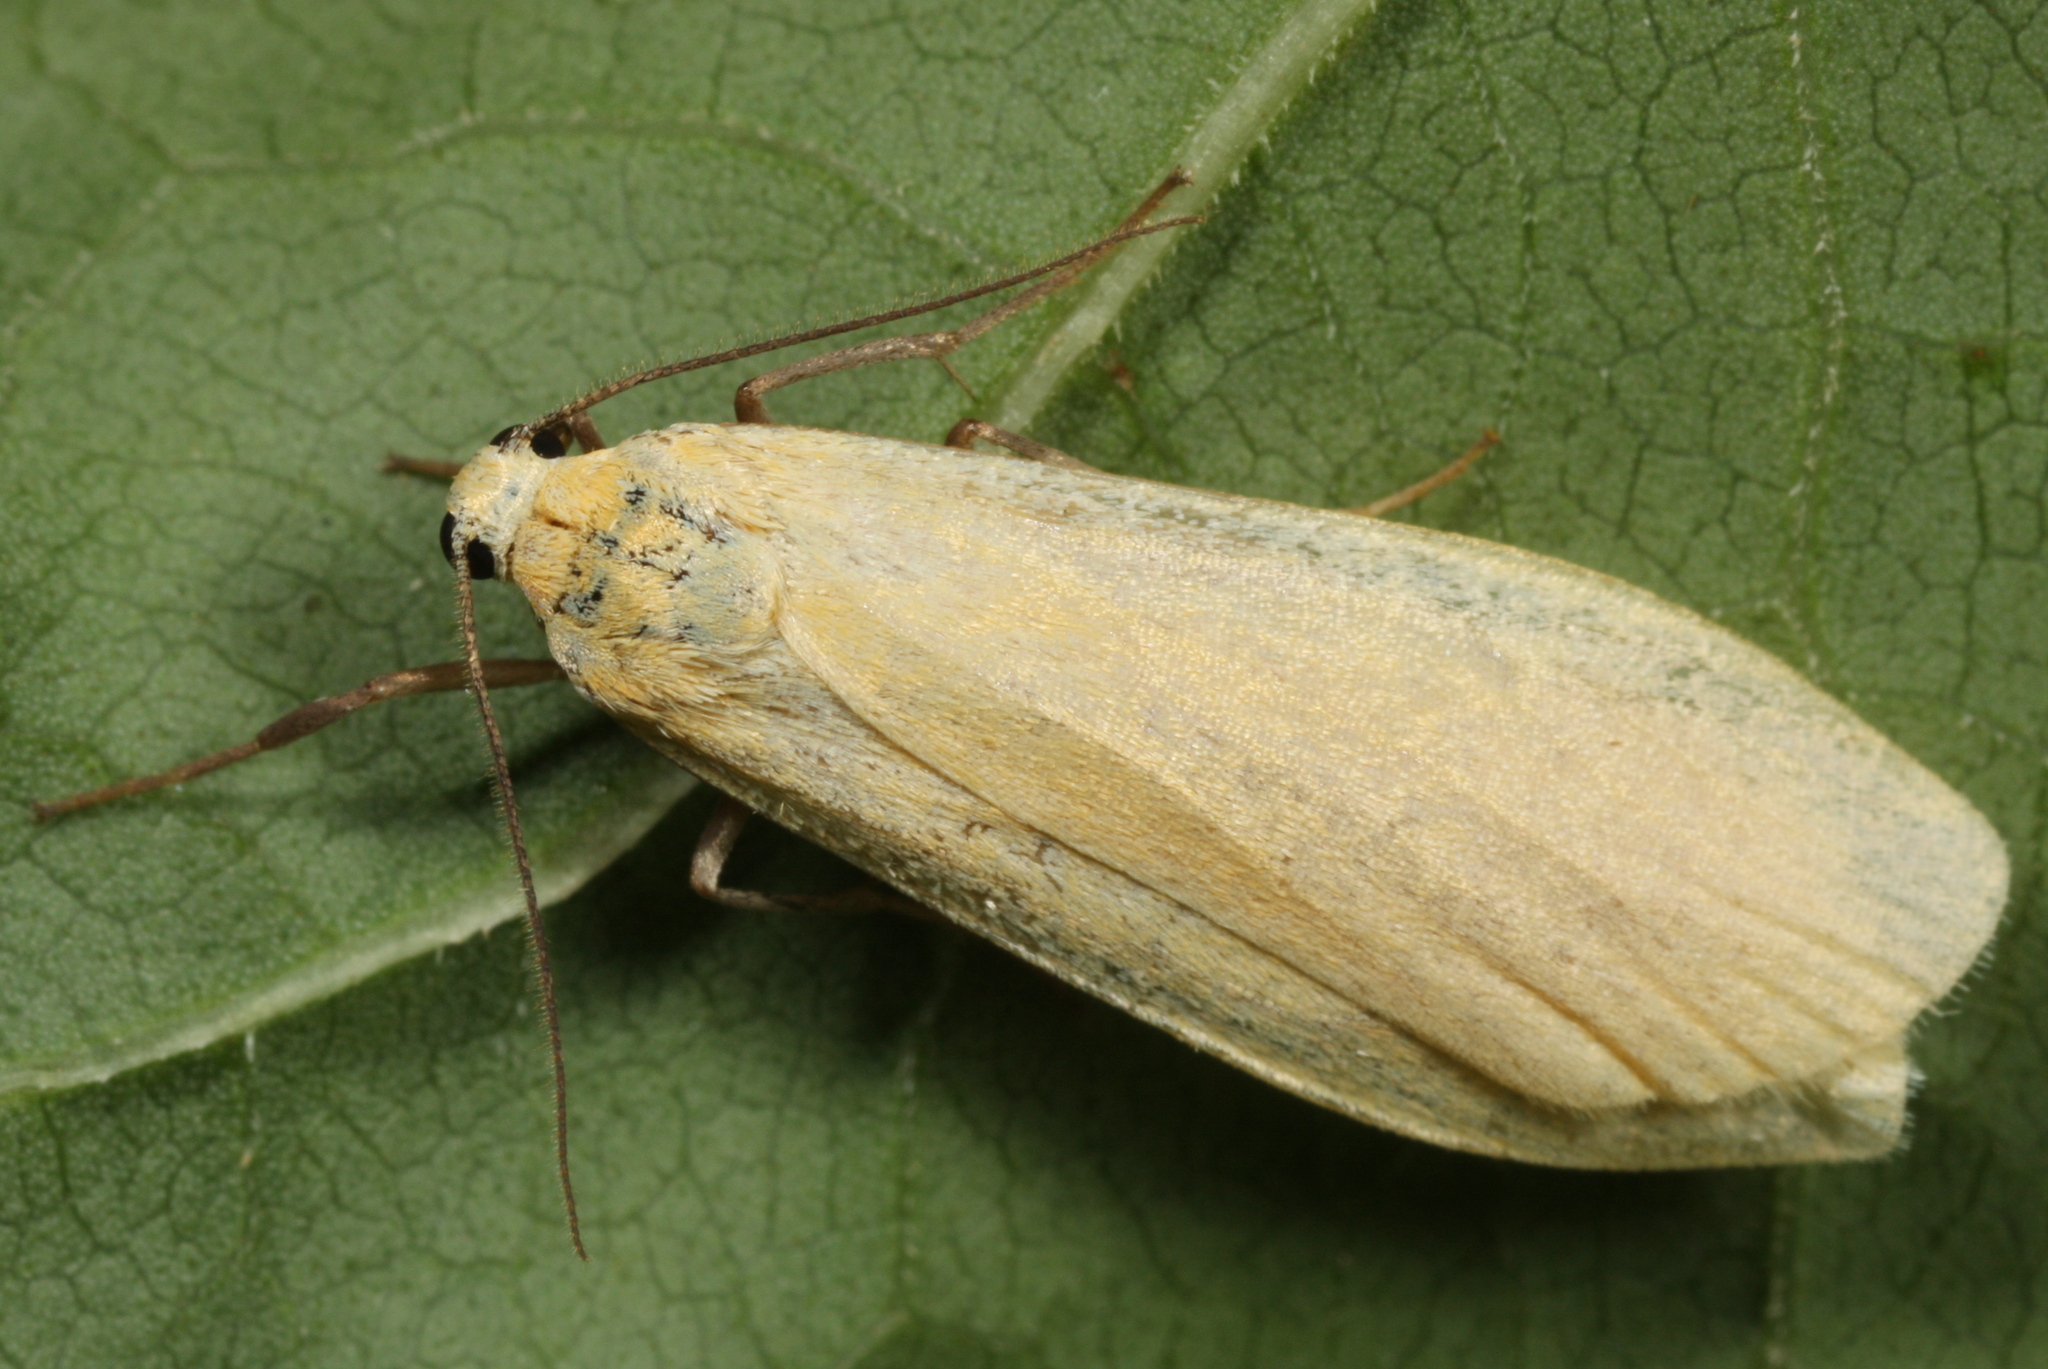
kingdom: Animalia
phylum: Arthropoda
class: Insecta
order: Lepidoptera
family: Erebidae
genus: Wittia
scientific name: Wittia sororcula
